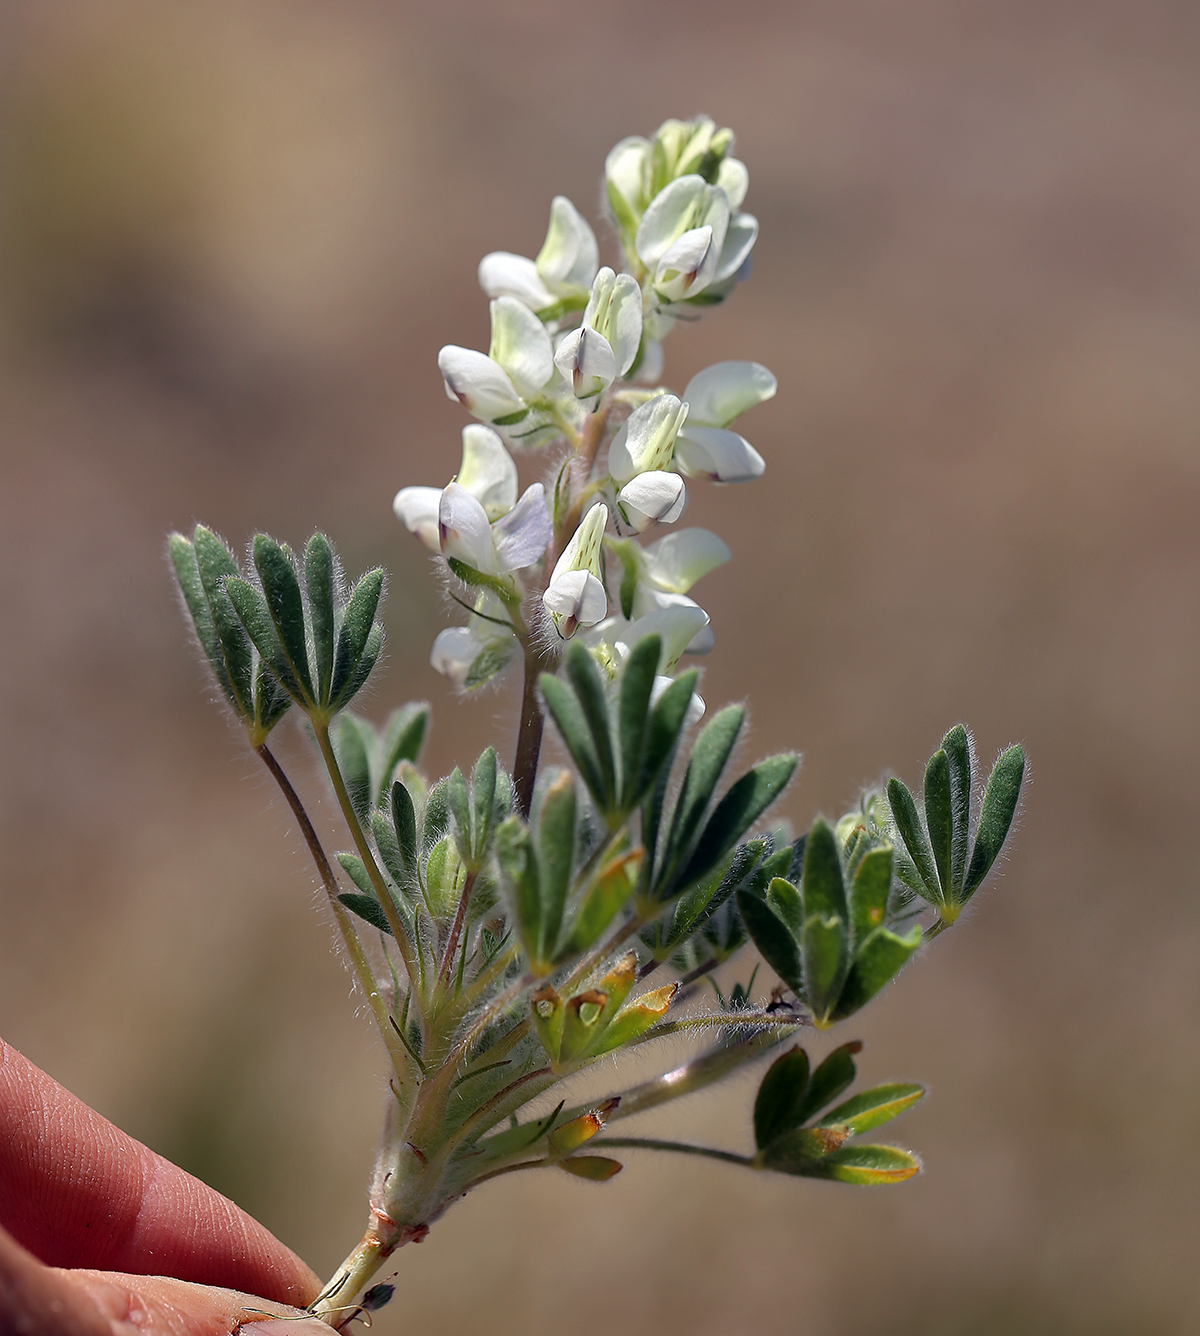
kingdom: Plantae
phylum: Tracheophyta
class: Magnoliopsida
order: Fabales
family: Fabaceae
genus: Lupinus
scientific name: Lupinus malacophyllus
